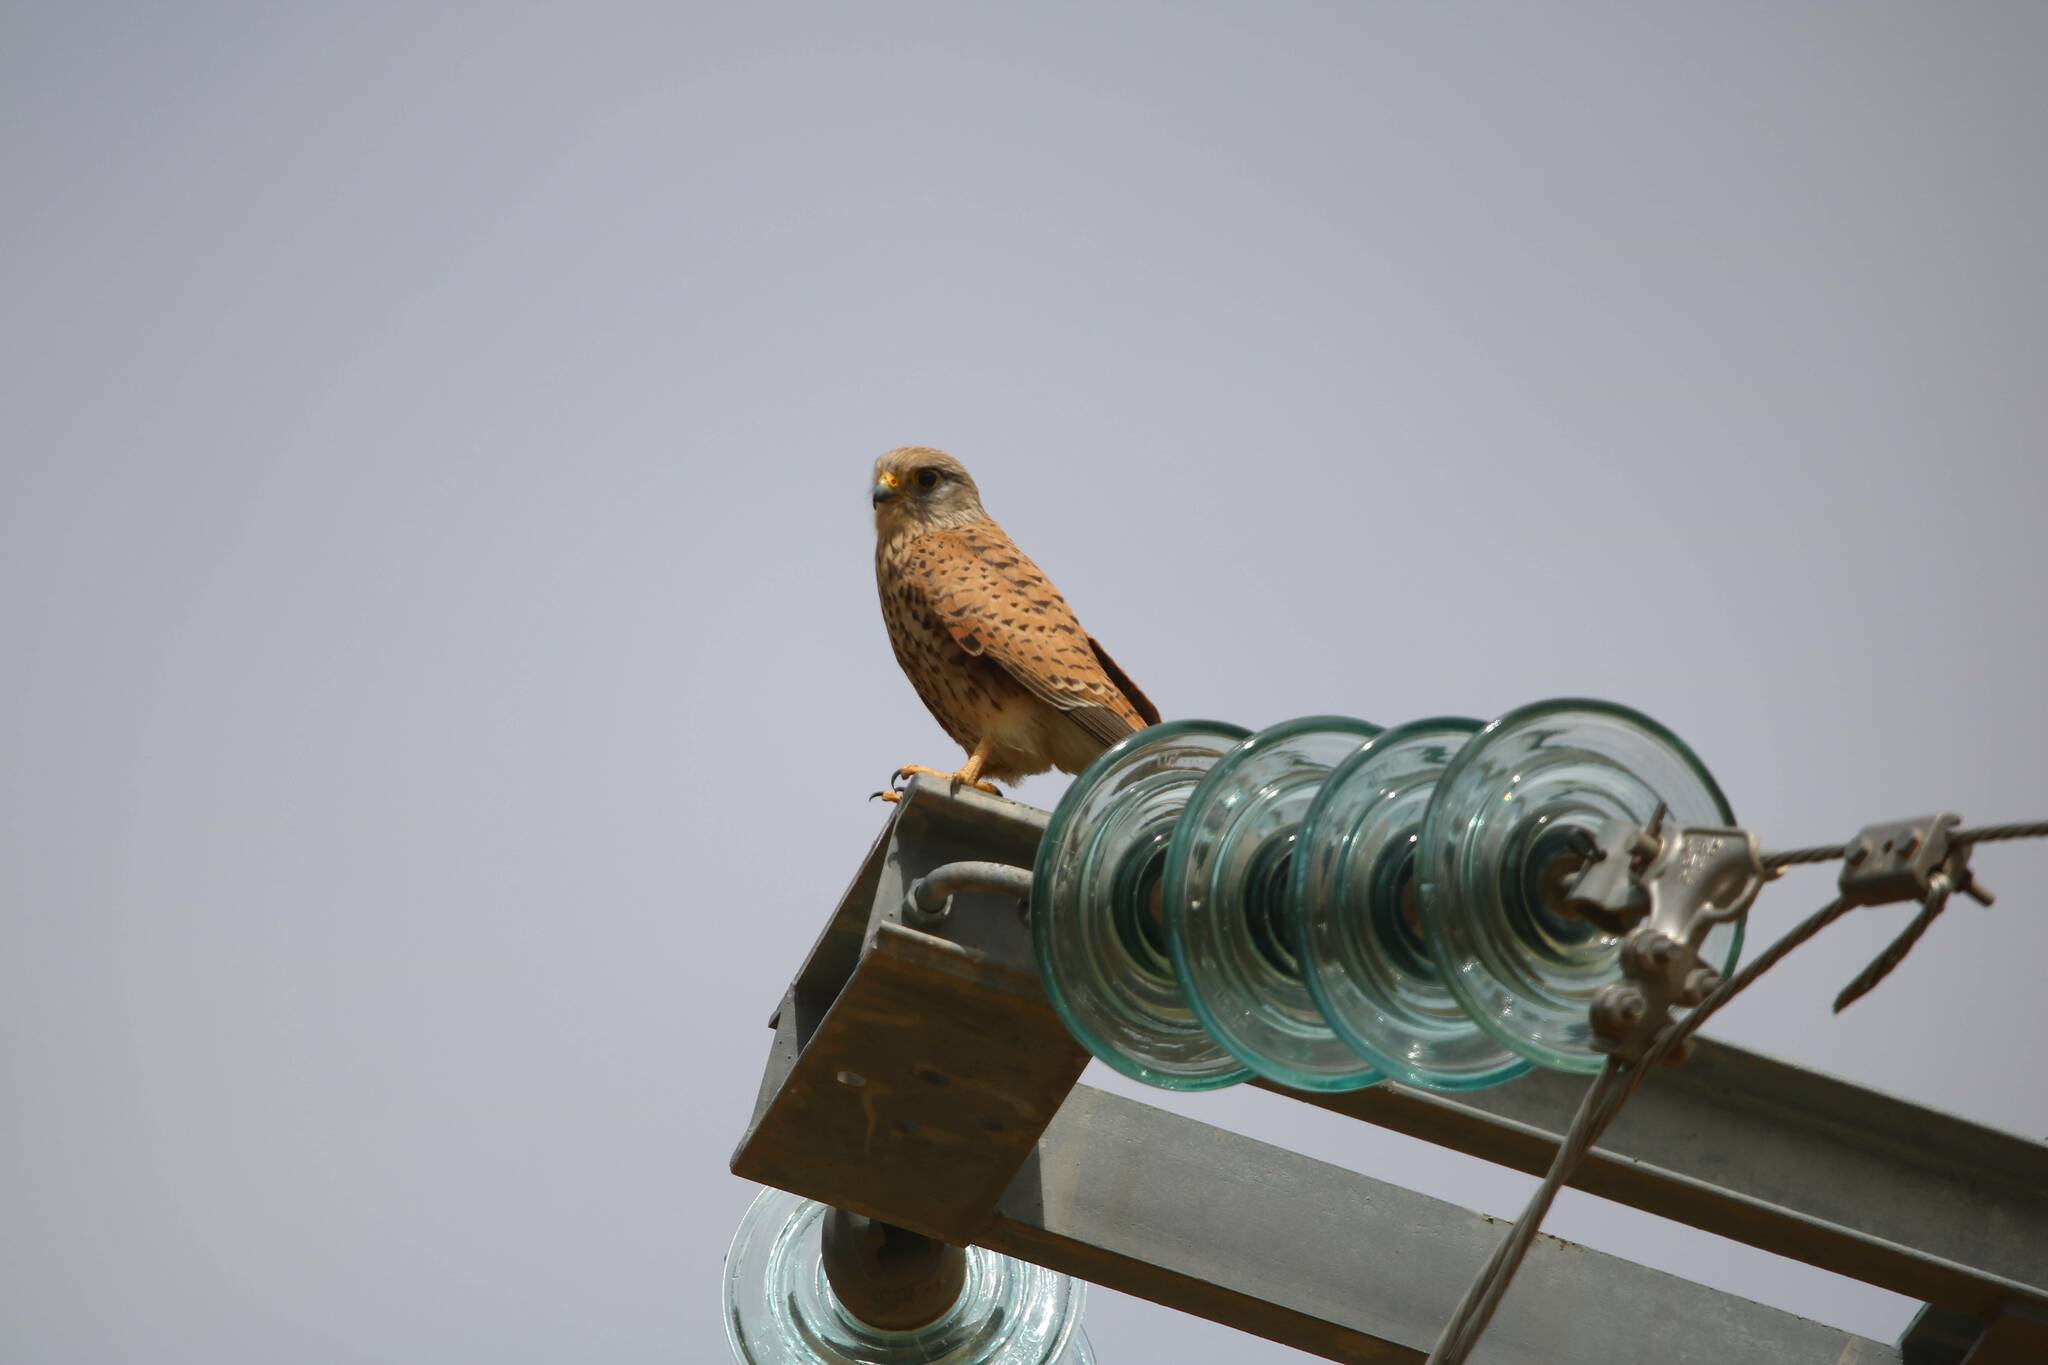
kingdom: Animalia
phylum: Chordata
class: Aves
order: Falconiformes
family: Falconidae
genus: Falco
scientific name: Falco tinnunculus
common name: Common kestrel
